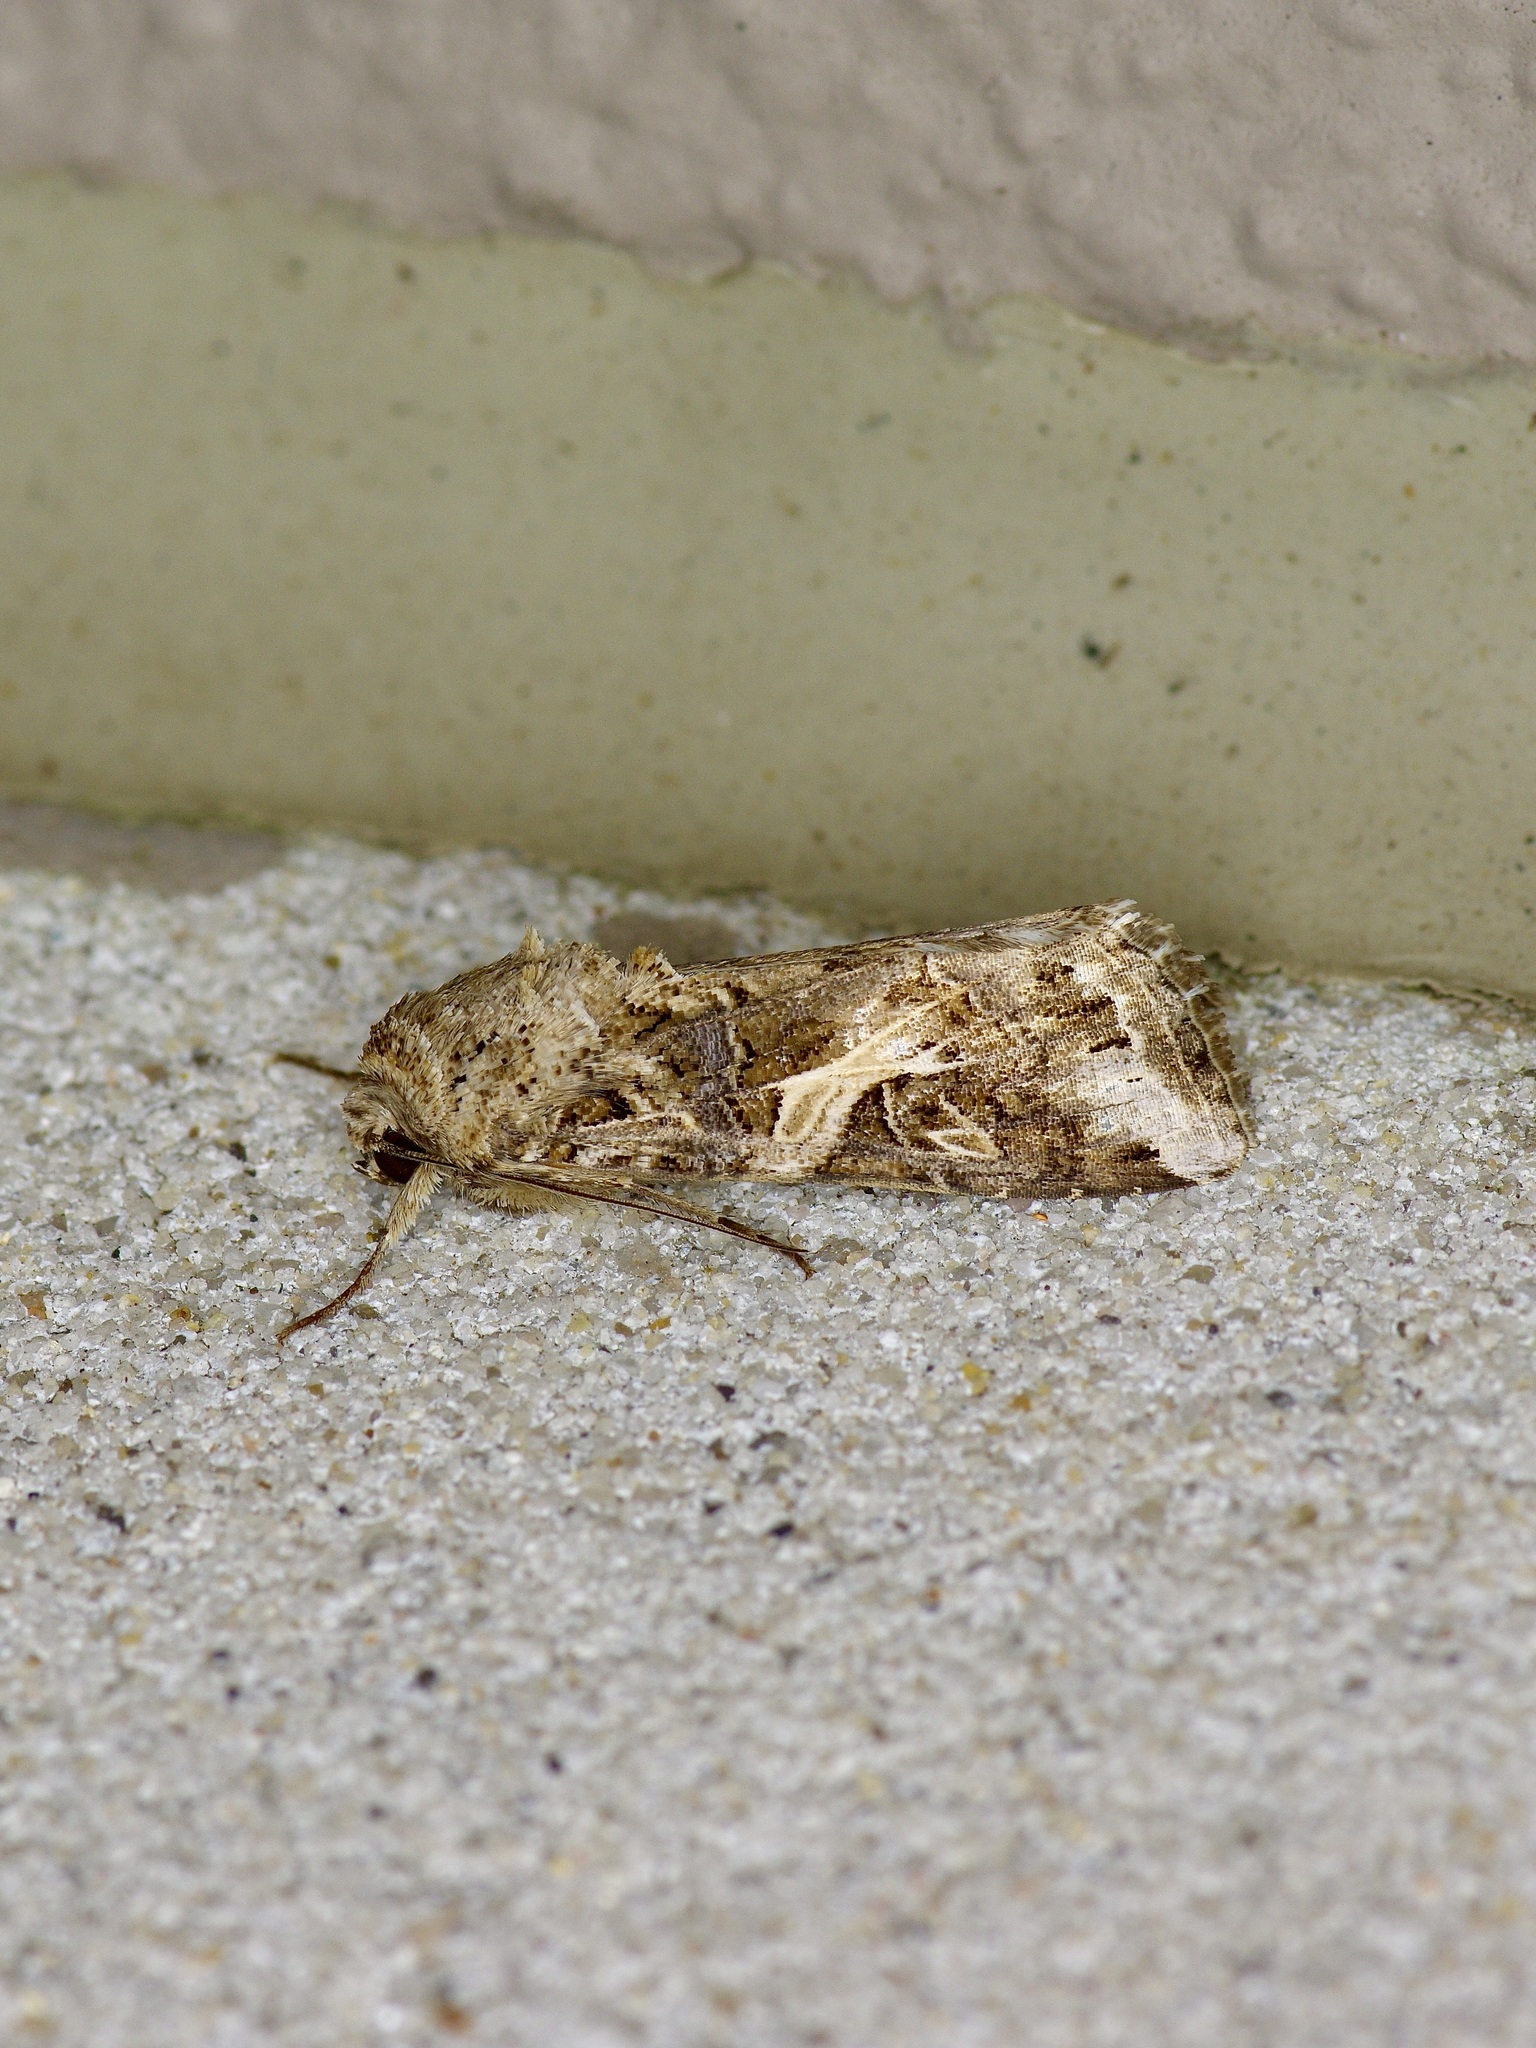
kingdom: Animalia
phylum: Arthropoda
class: Insecta
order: Lepidoptera
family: Noctuidae
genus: Spodoptera
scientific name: Spodoptera ornithogalli
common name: Yellow-striped armyworm
